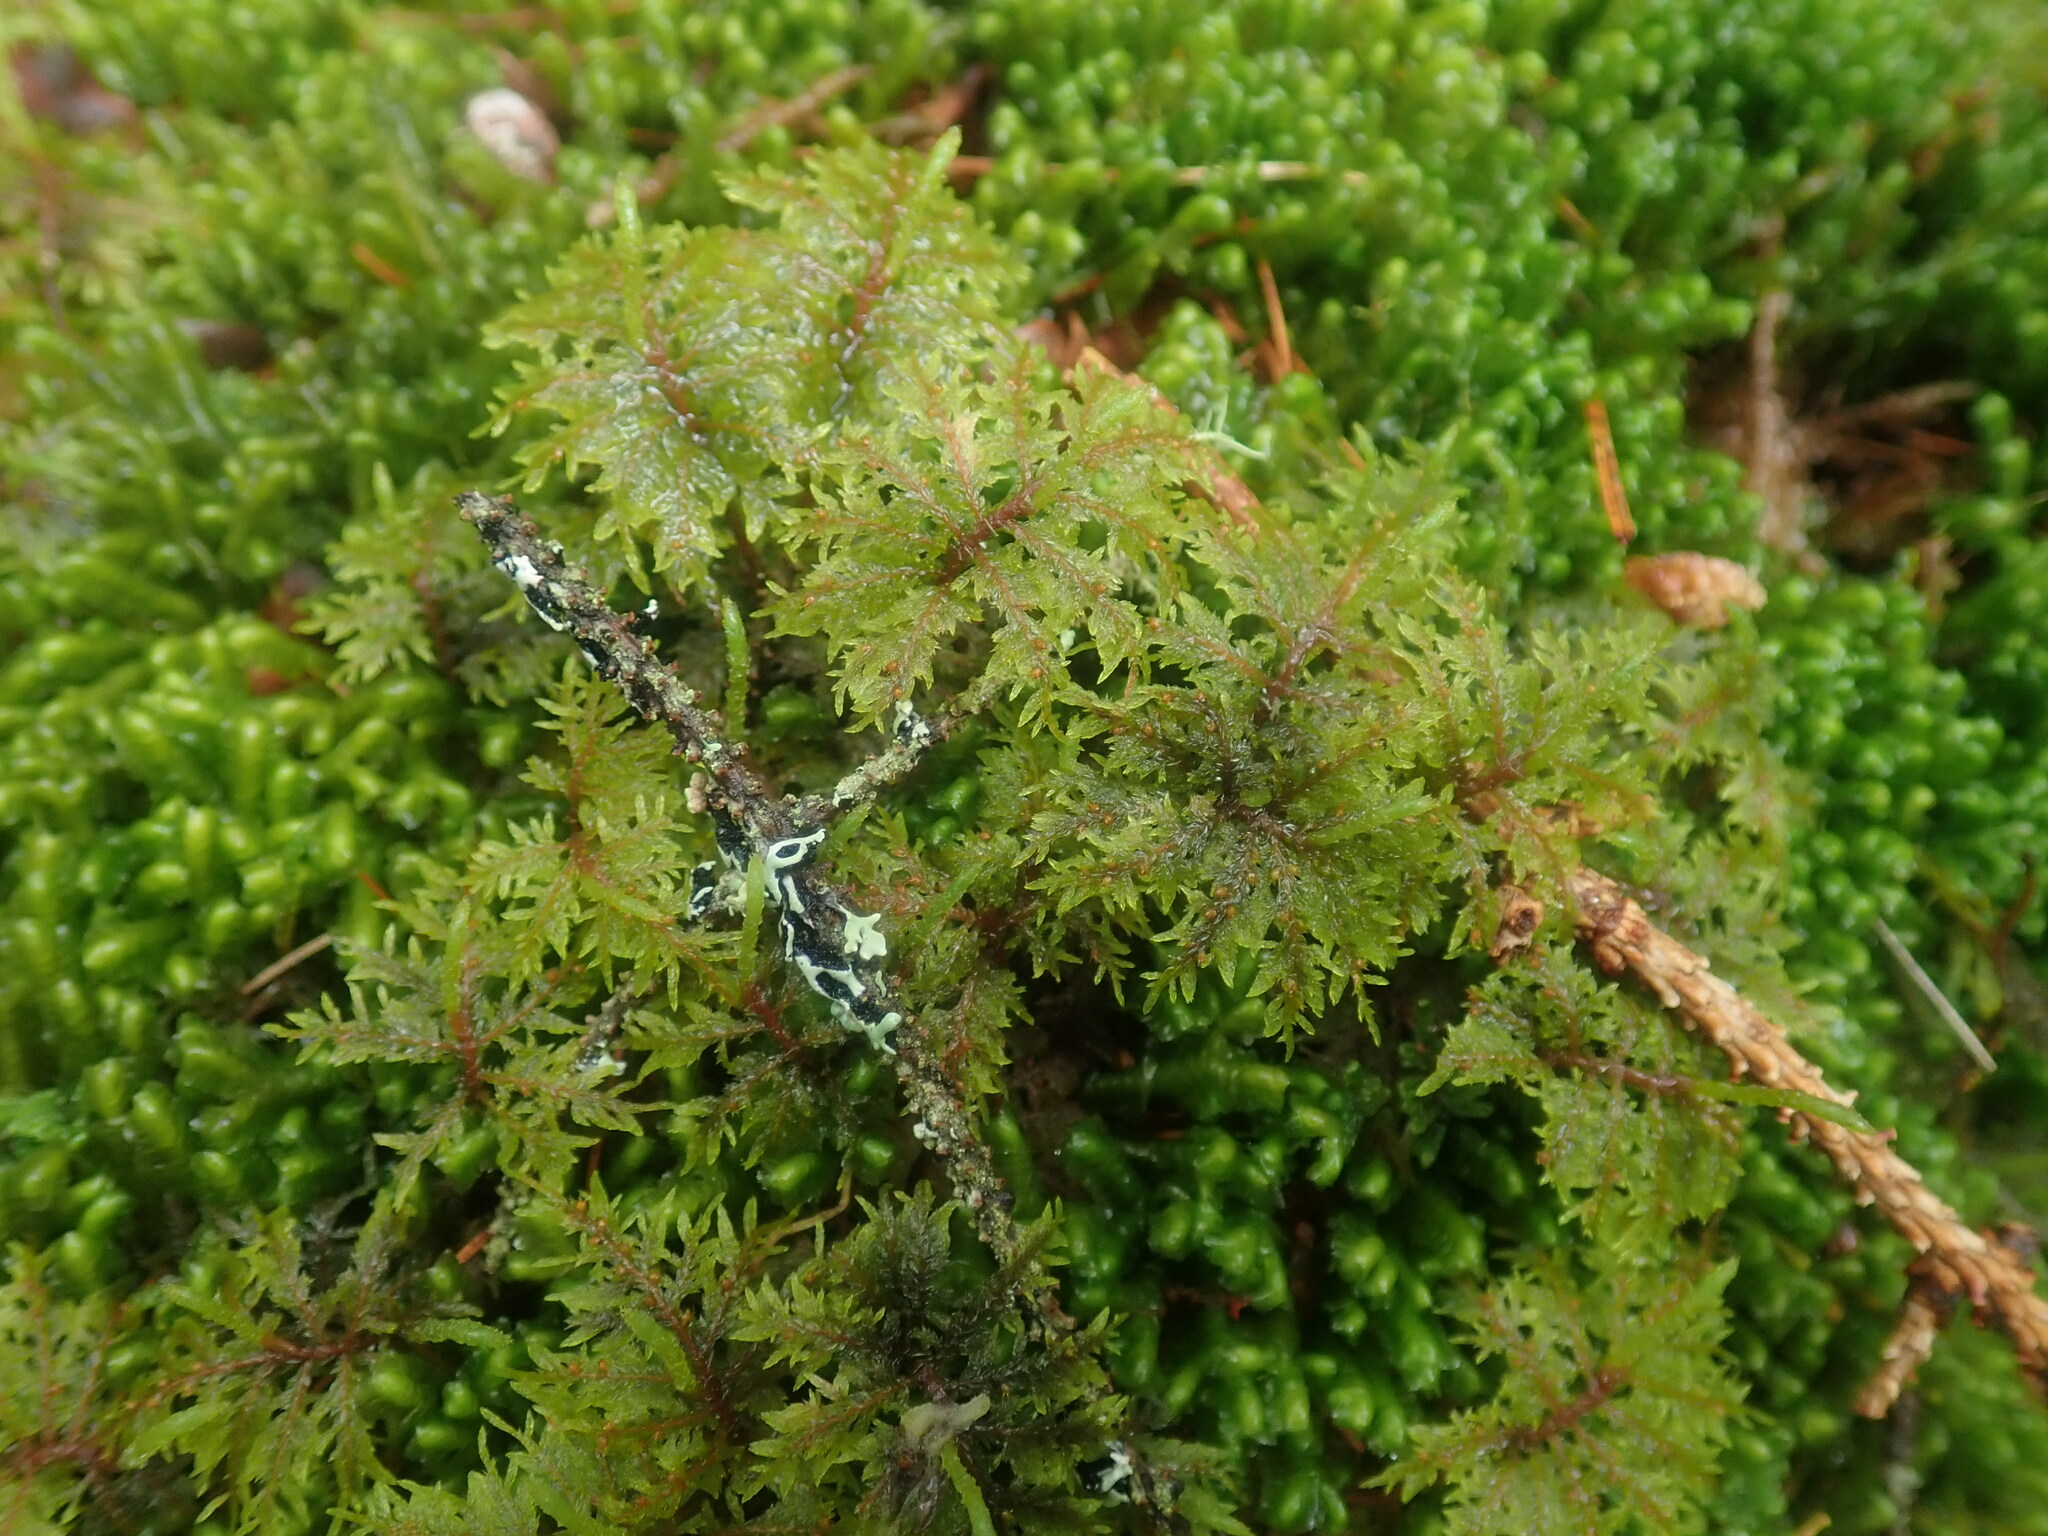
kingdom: Plantae
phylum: Bryophyta
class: Bryopsida
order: Hypnales
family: Hylocomiaceae
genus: Hylocomium
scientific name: Hylocomium splendens
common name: Stairstep moss
